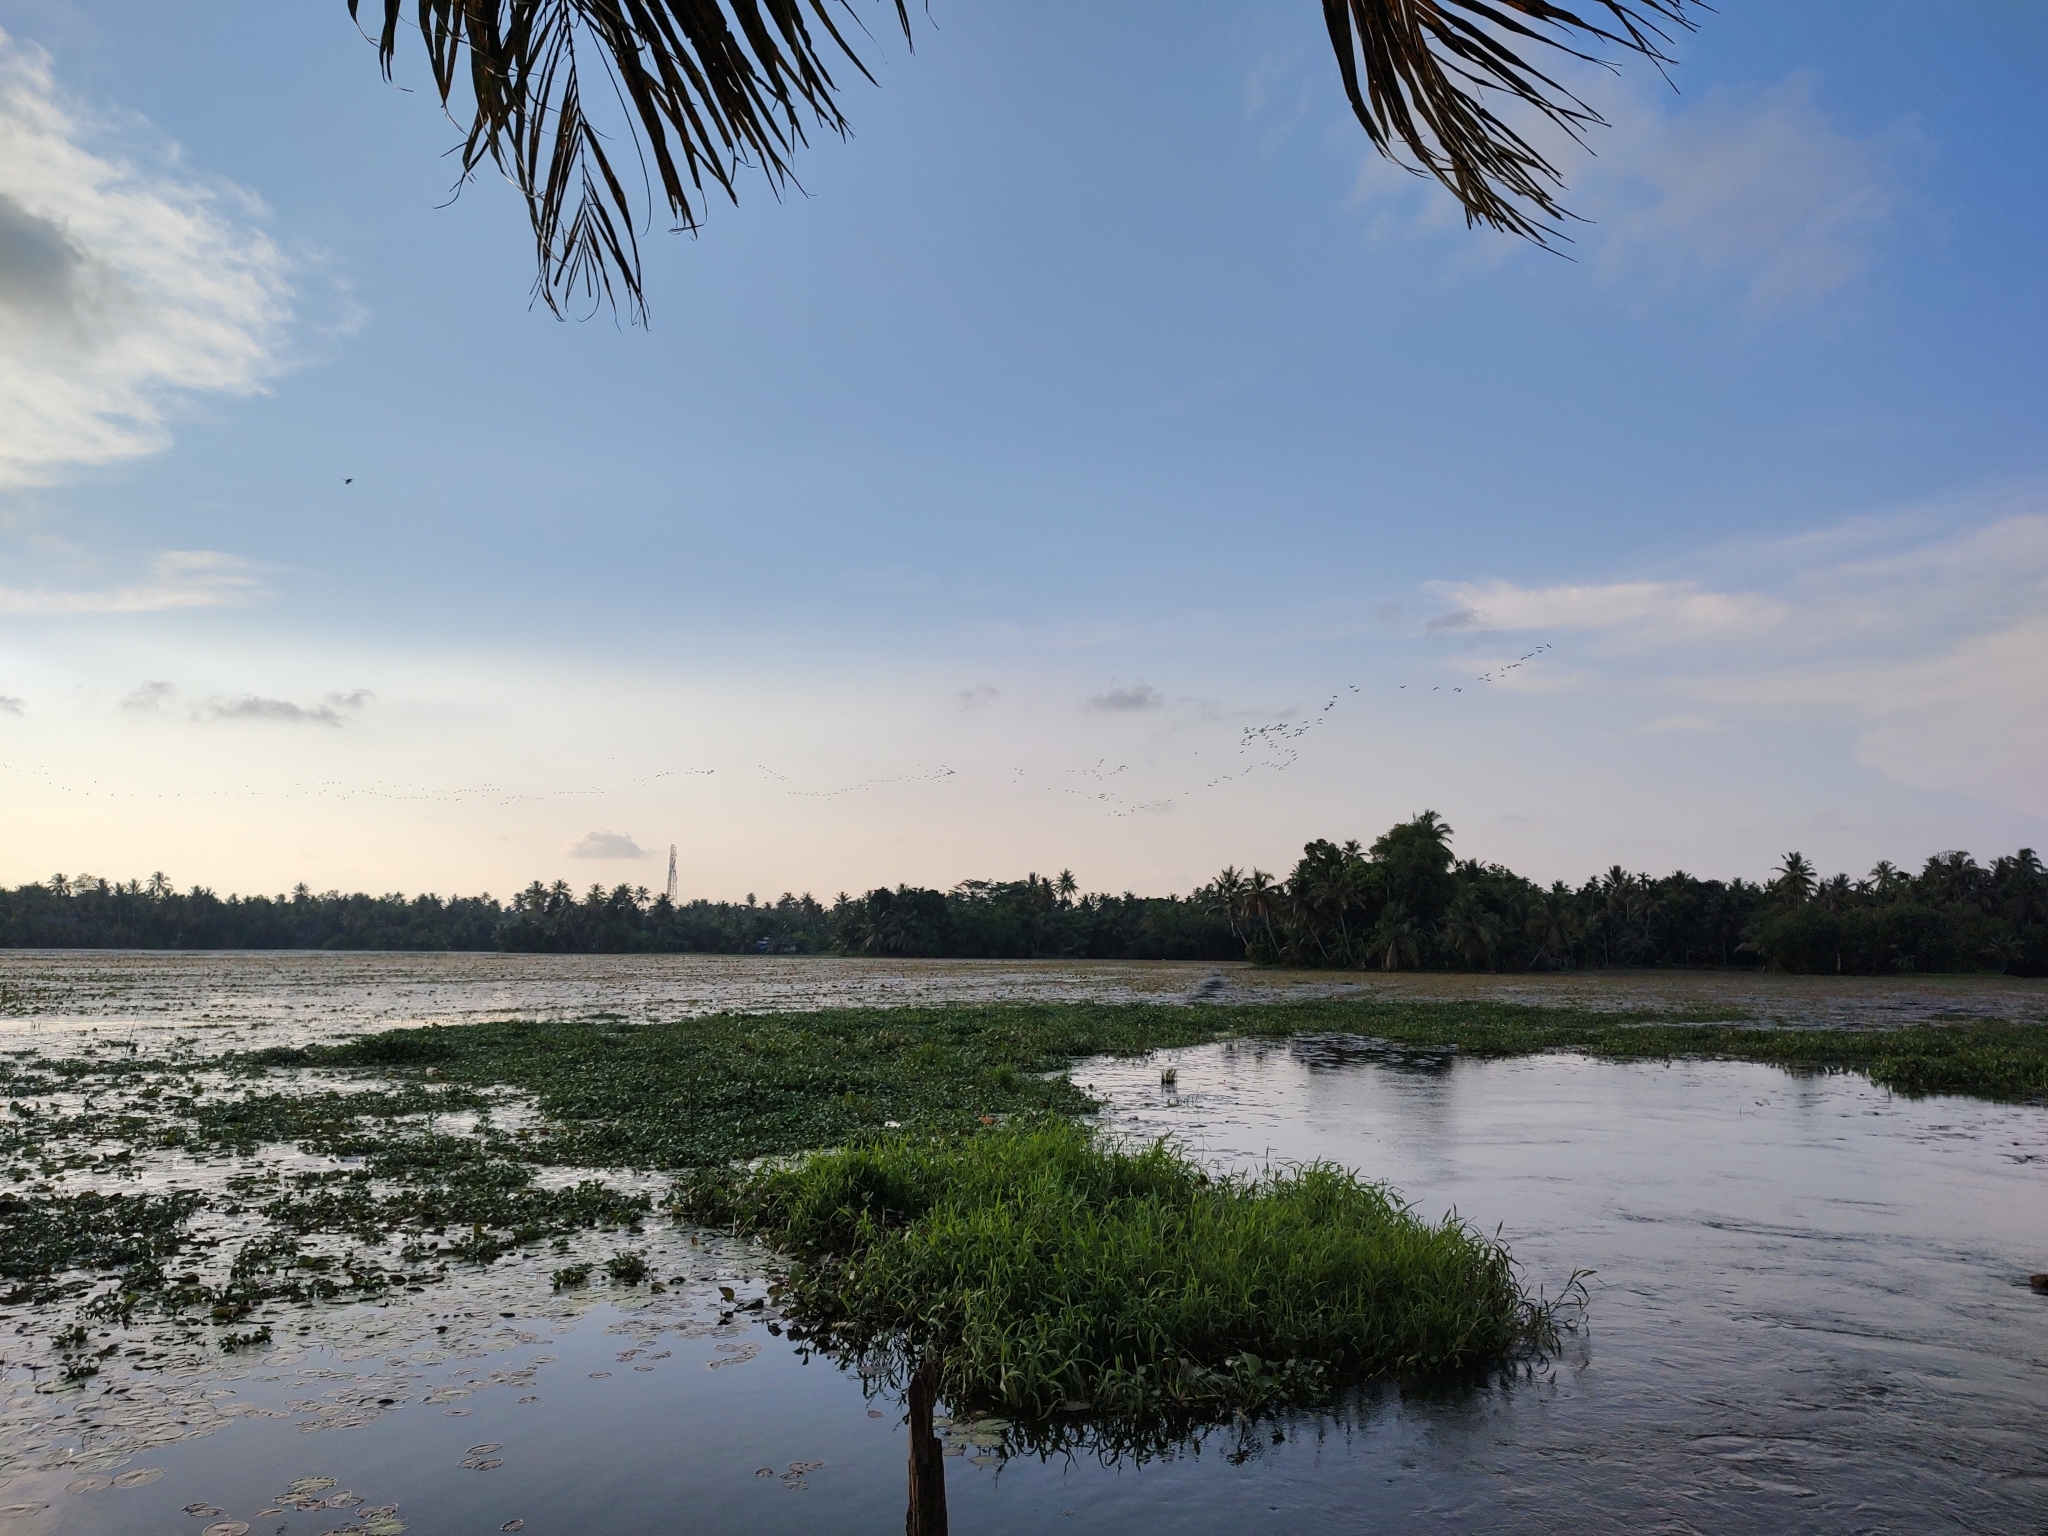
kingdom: Animalia
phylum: Chordata
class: Aves
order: Pelecaniformes
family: Threskiornithidae
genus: Plegadis
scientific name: Plegadis falcinellus
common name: Glossy ibis
